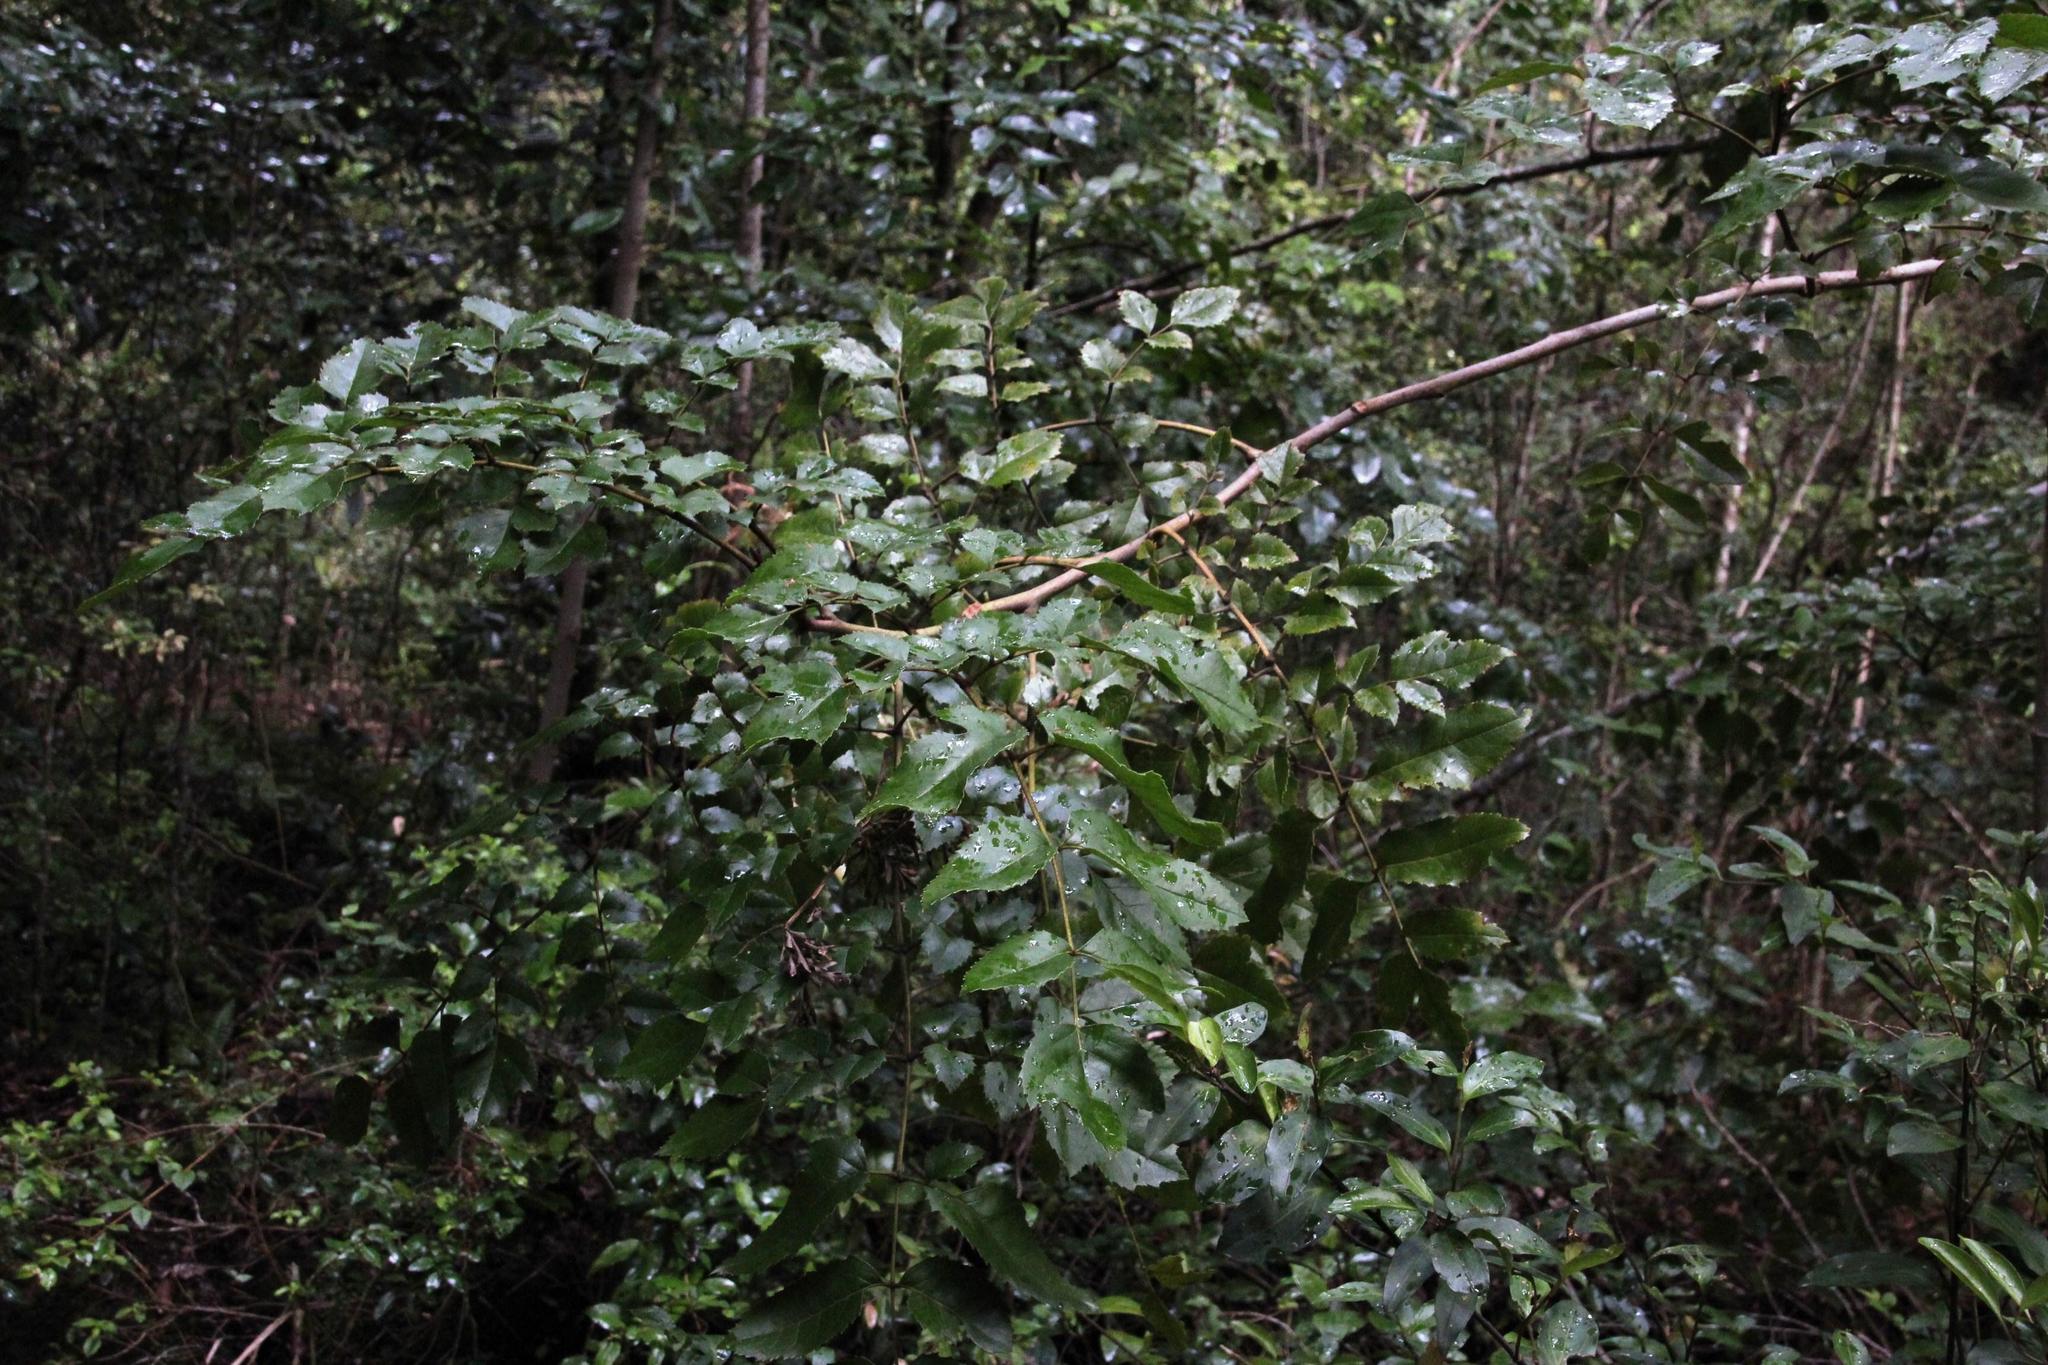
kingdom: Plantae
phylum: Tracheophyta
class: Magnoliopsida
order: Proteales
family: Proteaceae
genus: Gevuina
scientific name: Gevuina avellana
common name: Chilean hazel
